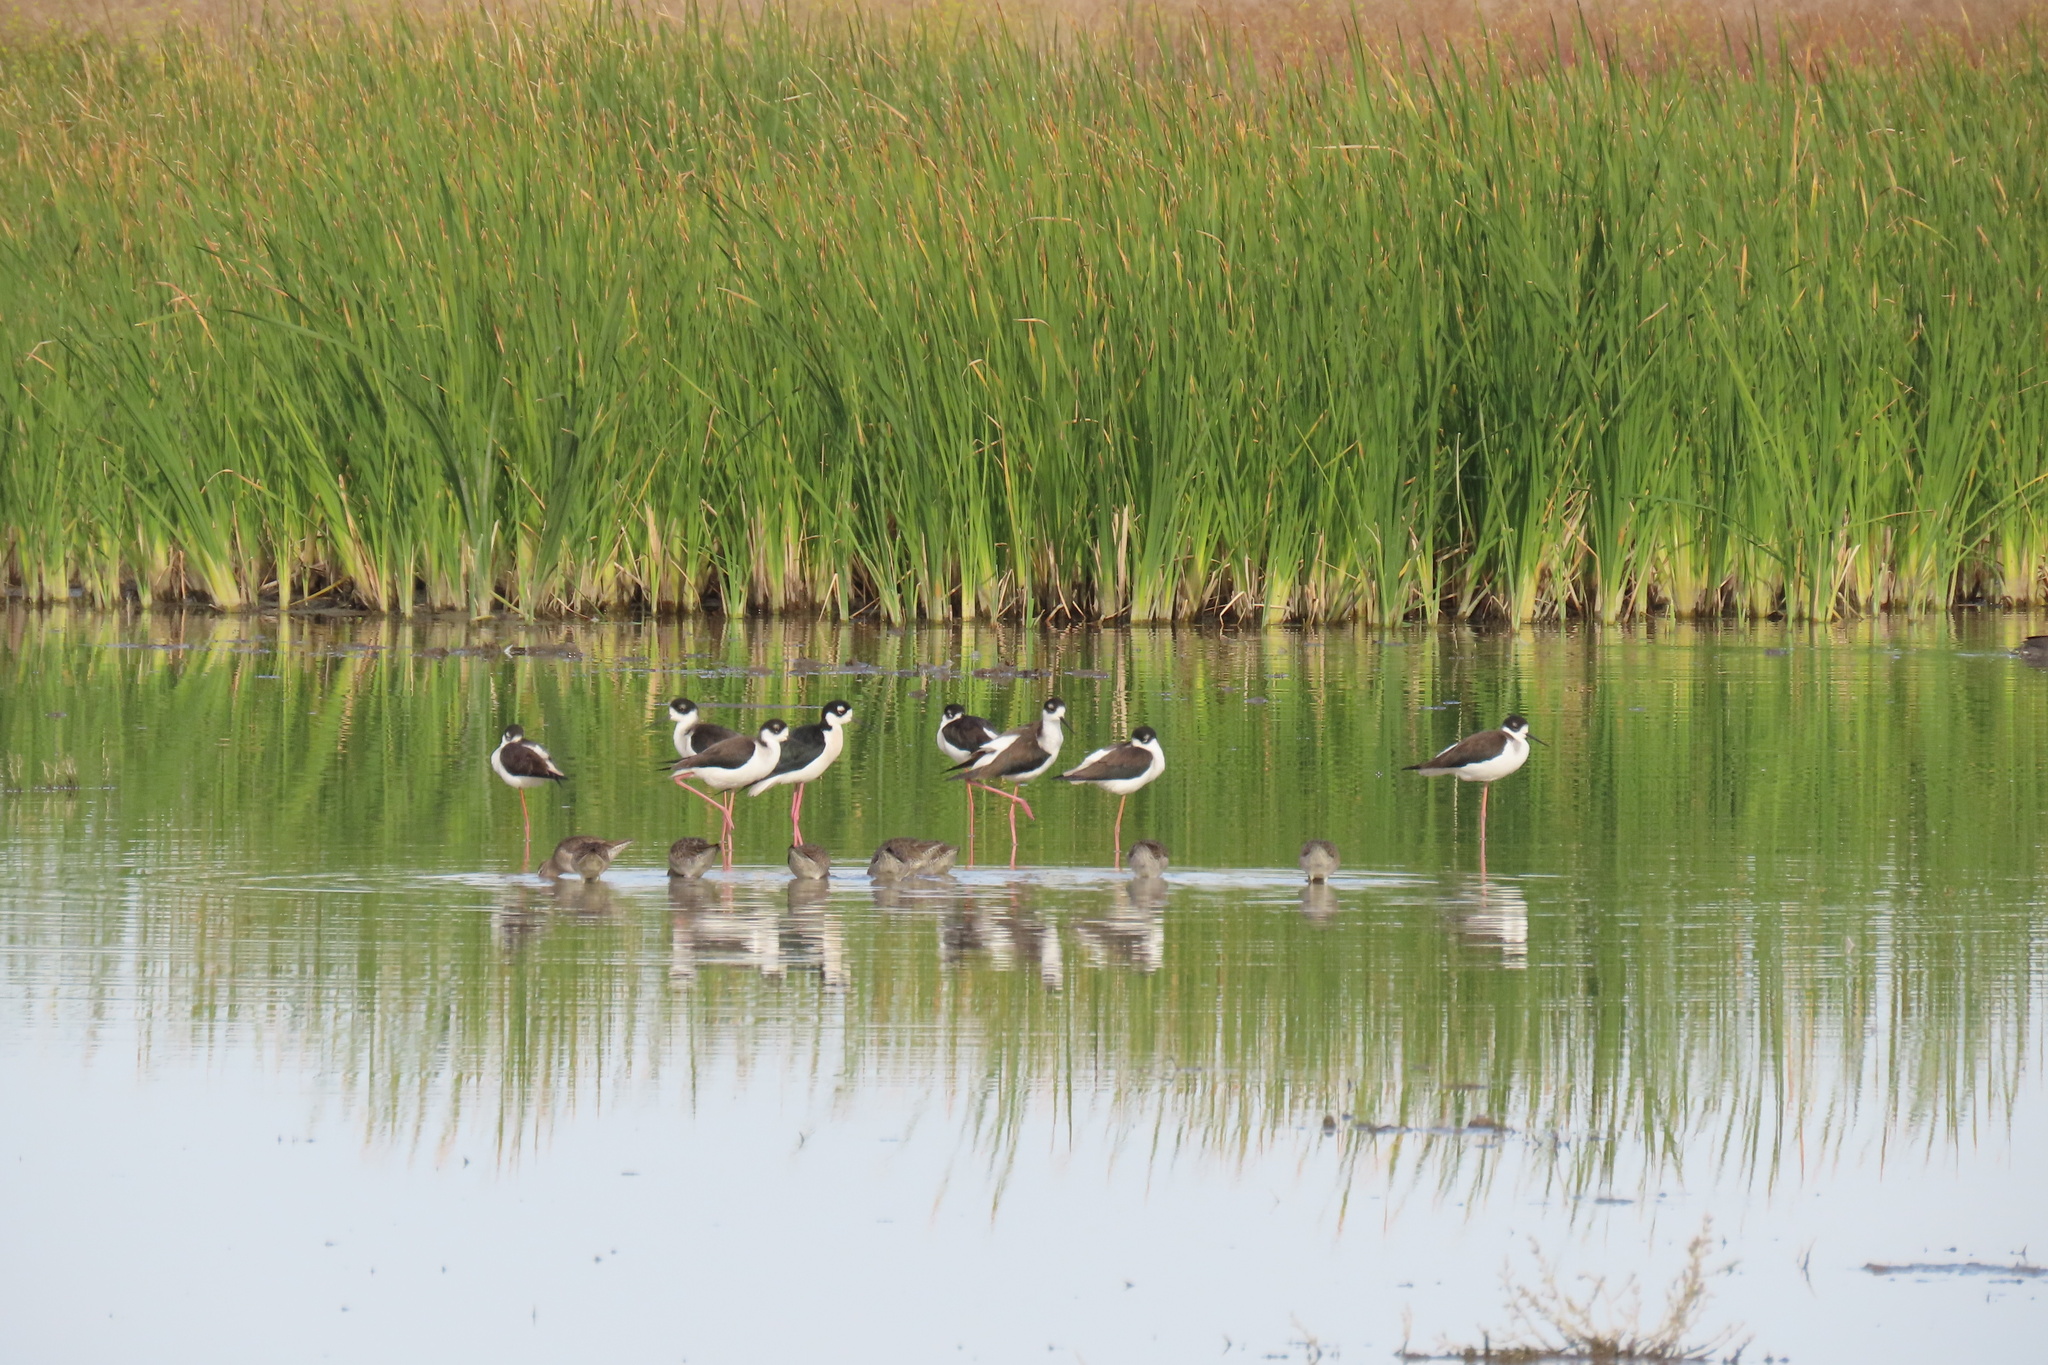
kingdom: Animalia
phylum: Chordata
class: Aves
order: Charadriiformes
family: Recurvirostridae
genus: Himantopus
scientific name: Himantopus mexicanus
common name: Black-necked stilt
